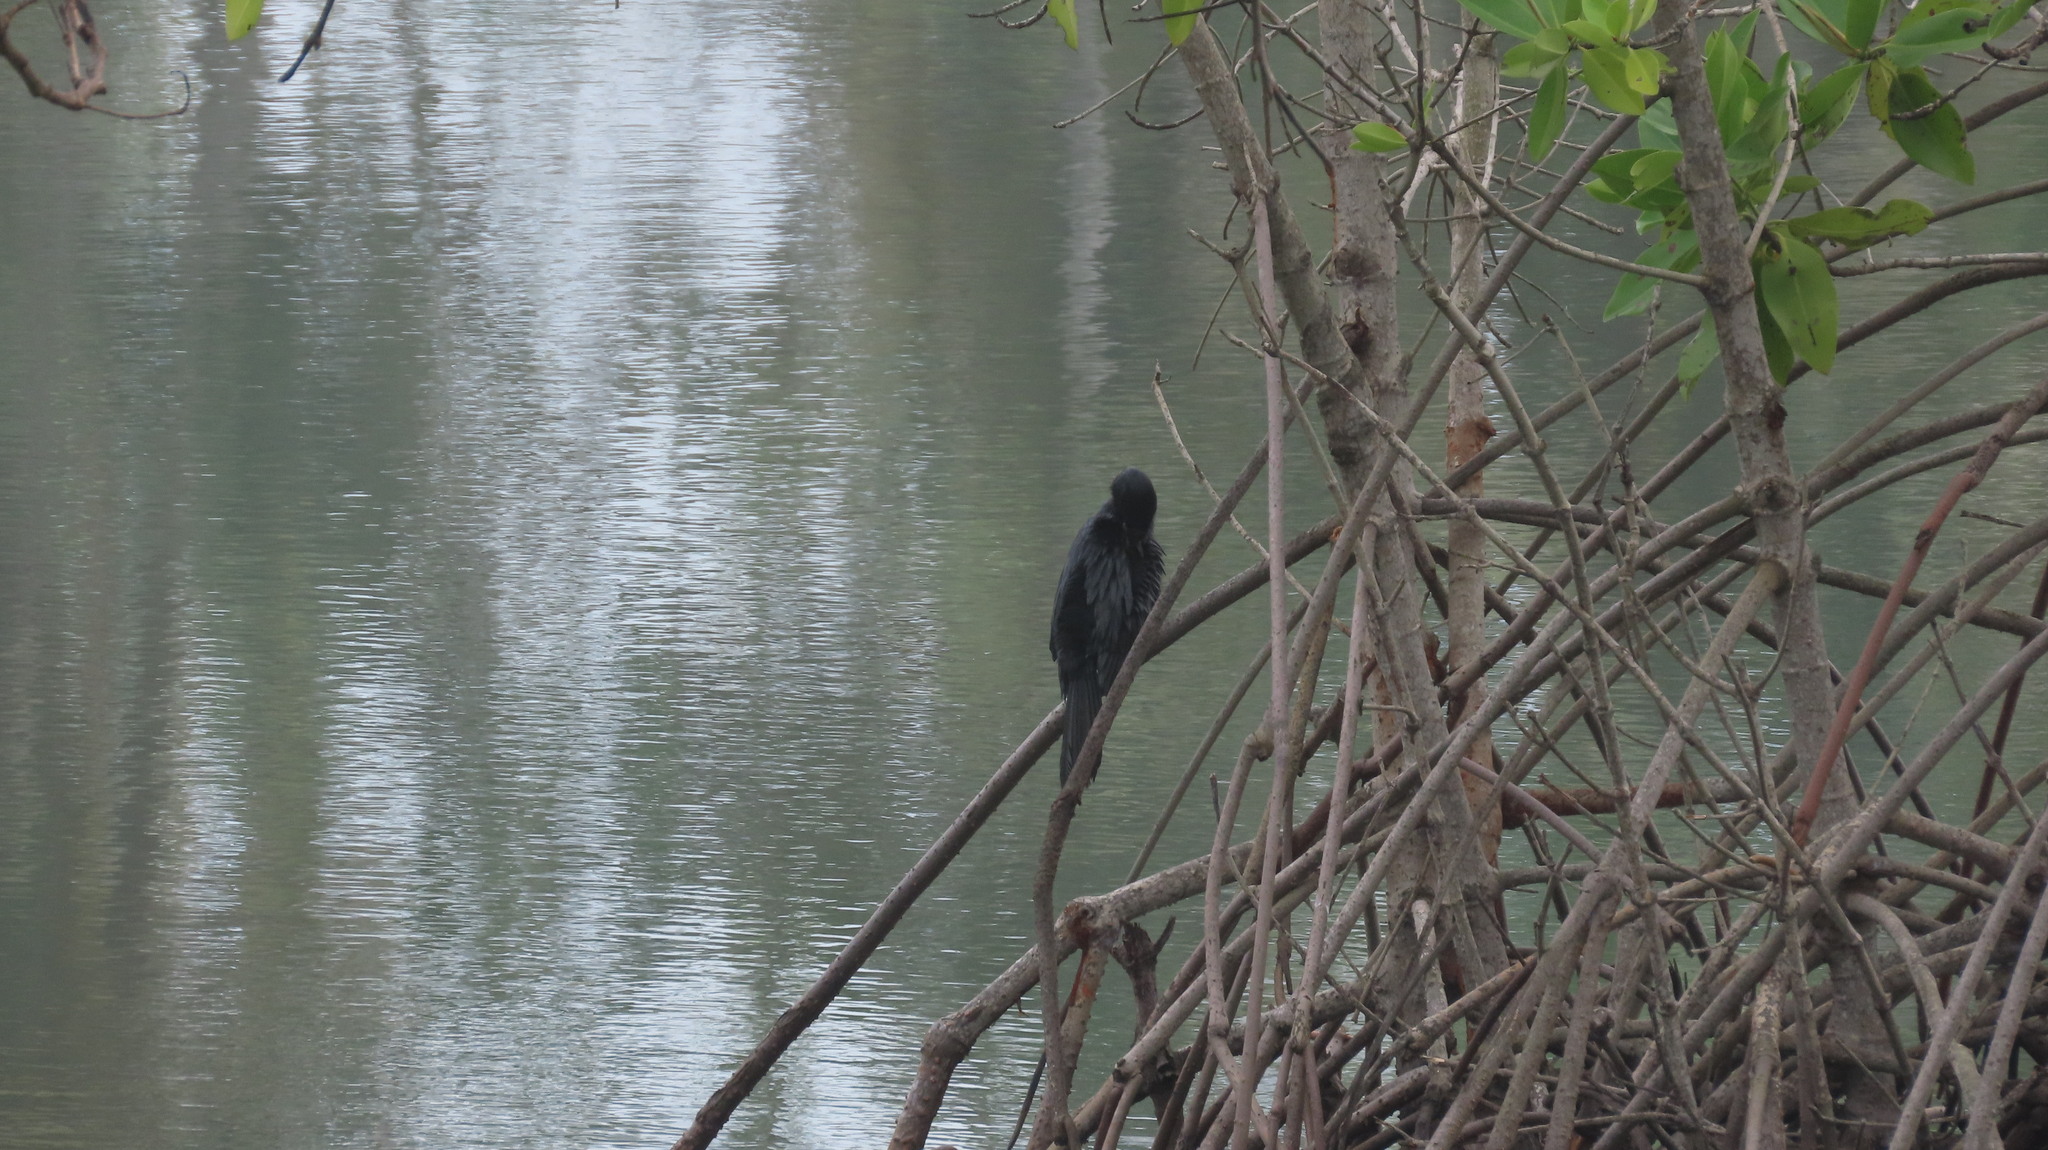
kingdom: Animalia
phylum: Chordata
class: Aves
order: Suliformes
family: Phalacrocoracidae
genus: Microcarbo
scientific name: Microcarbo niger
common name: Little cormorant
